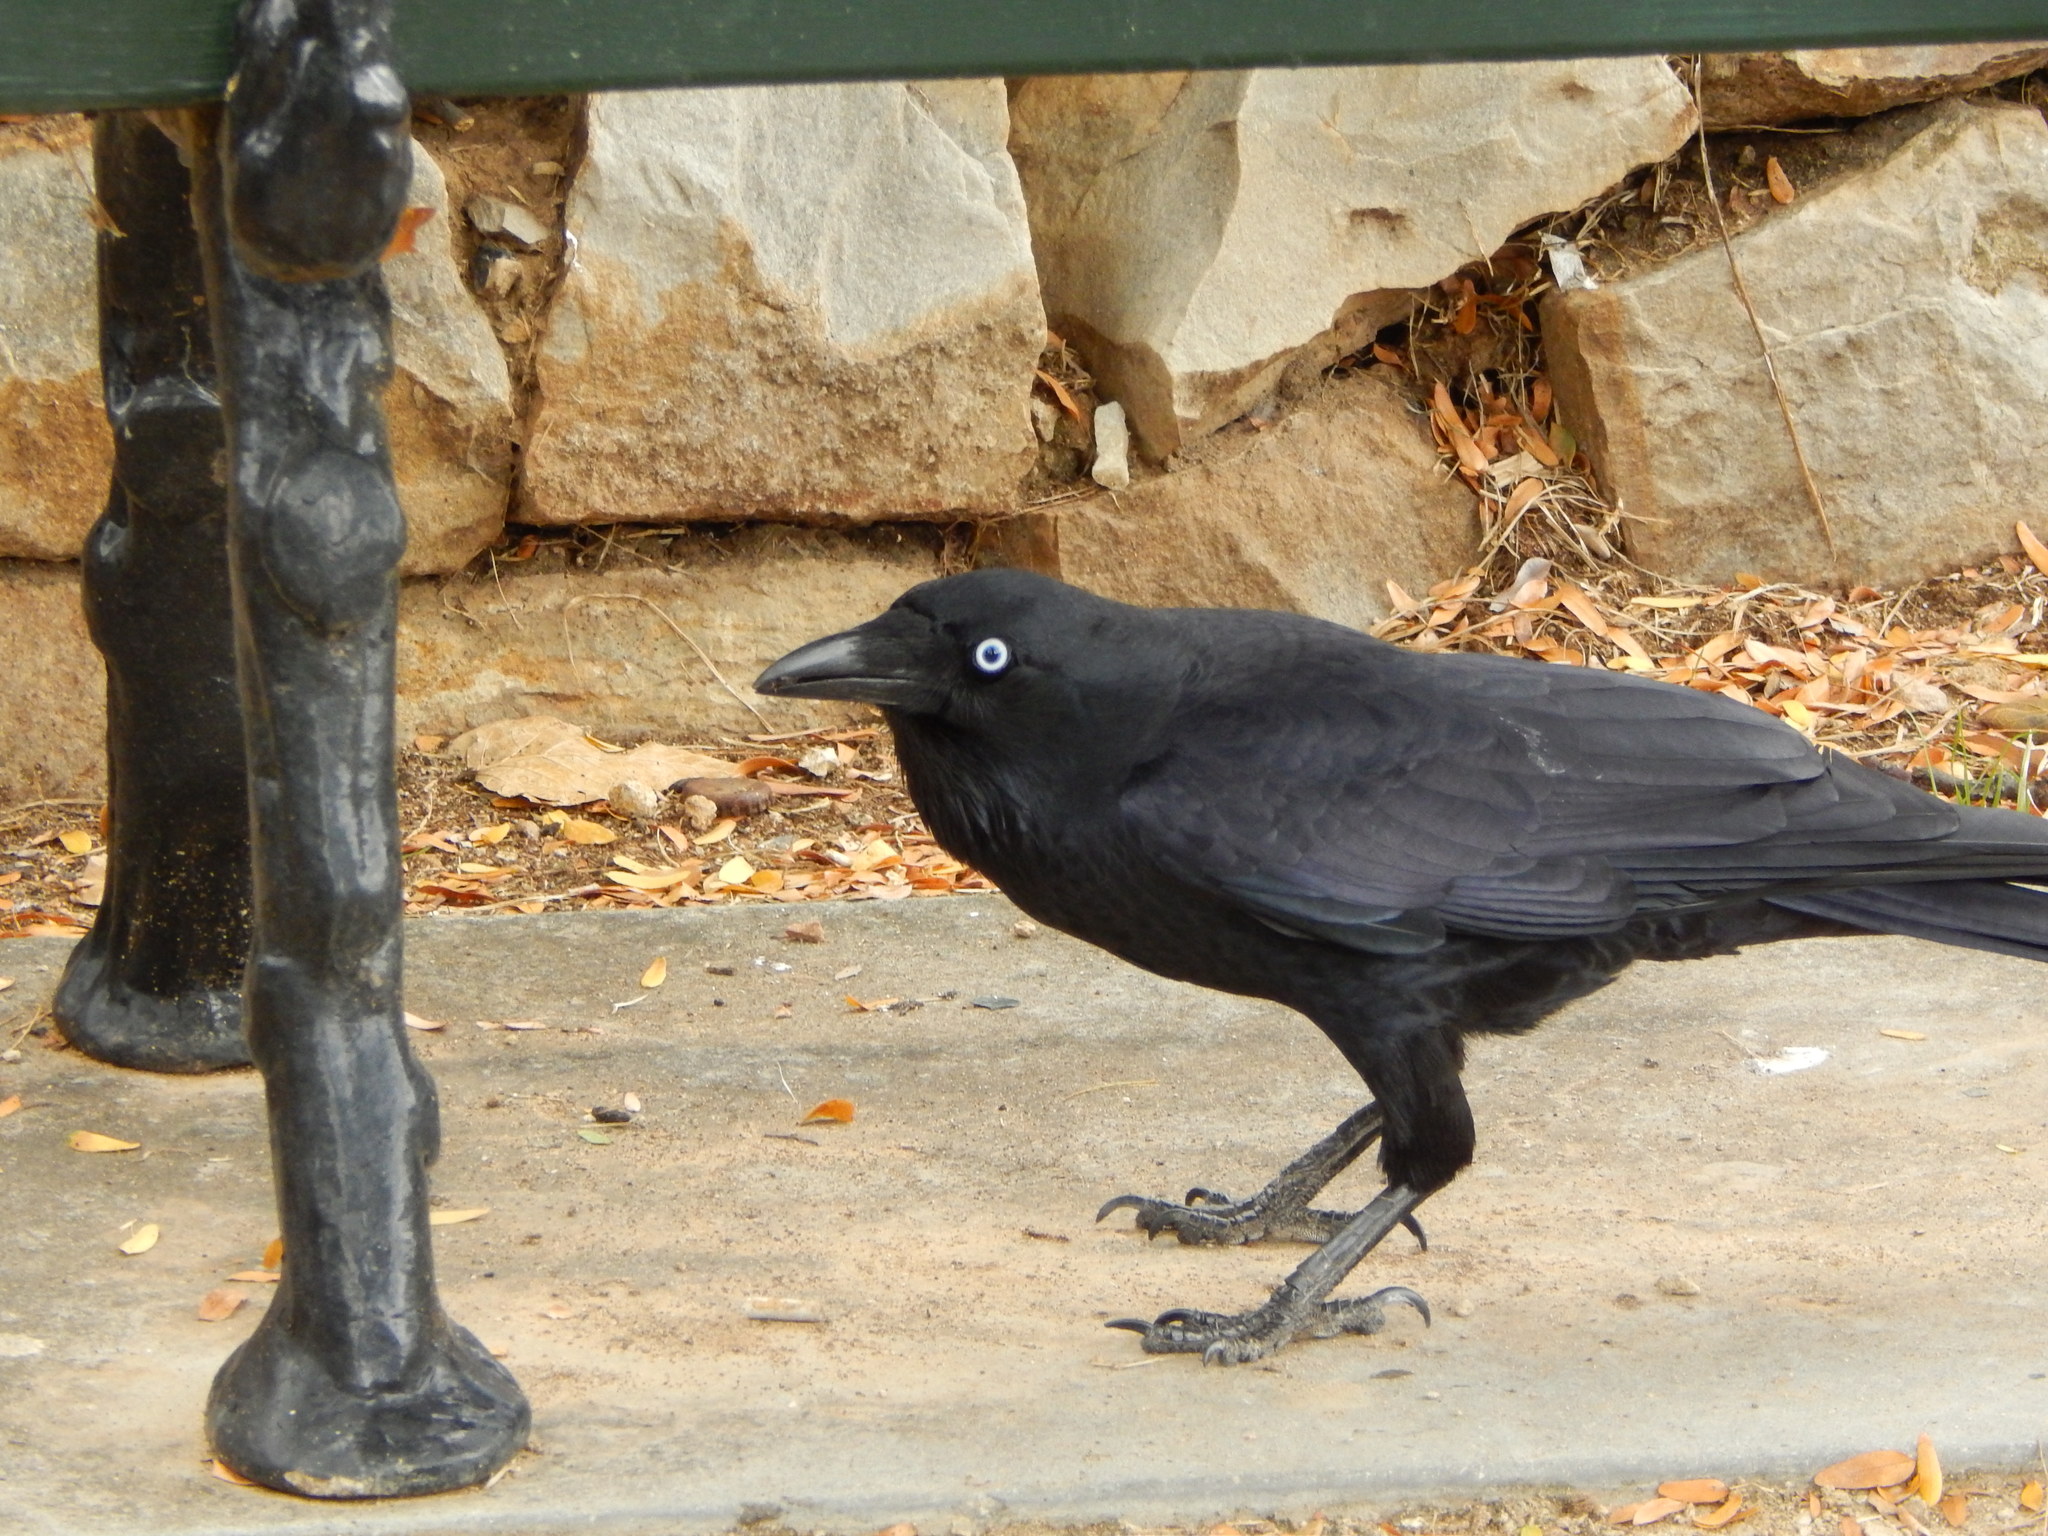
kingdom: Animalia
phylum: Chordata
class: Aves
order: Passeriformes
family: Corvidae
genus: Corvus
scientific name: Corvus
